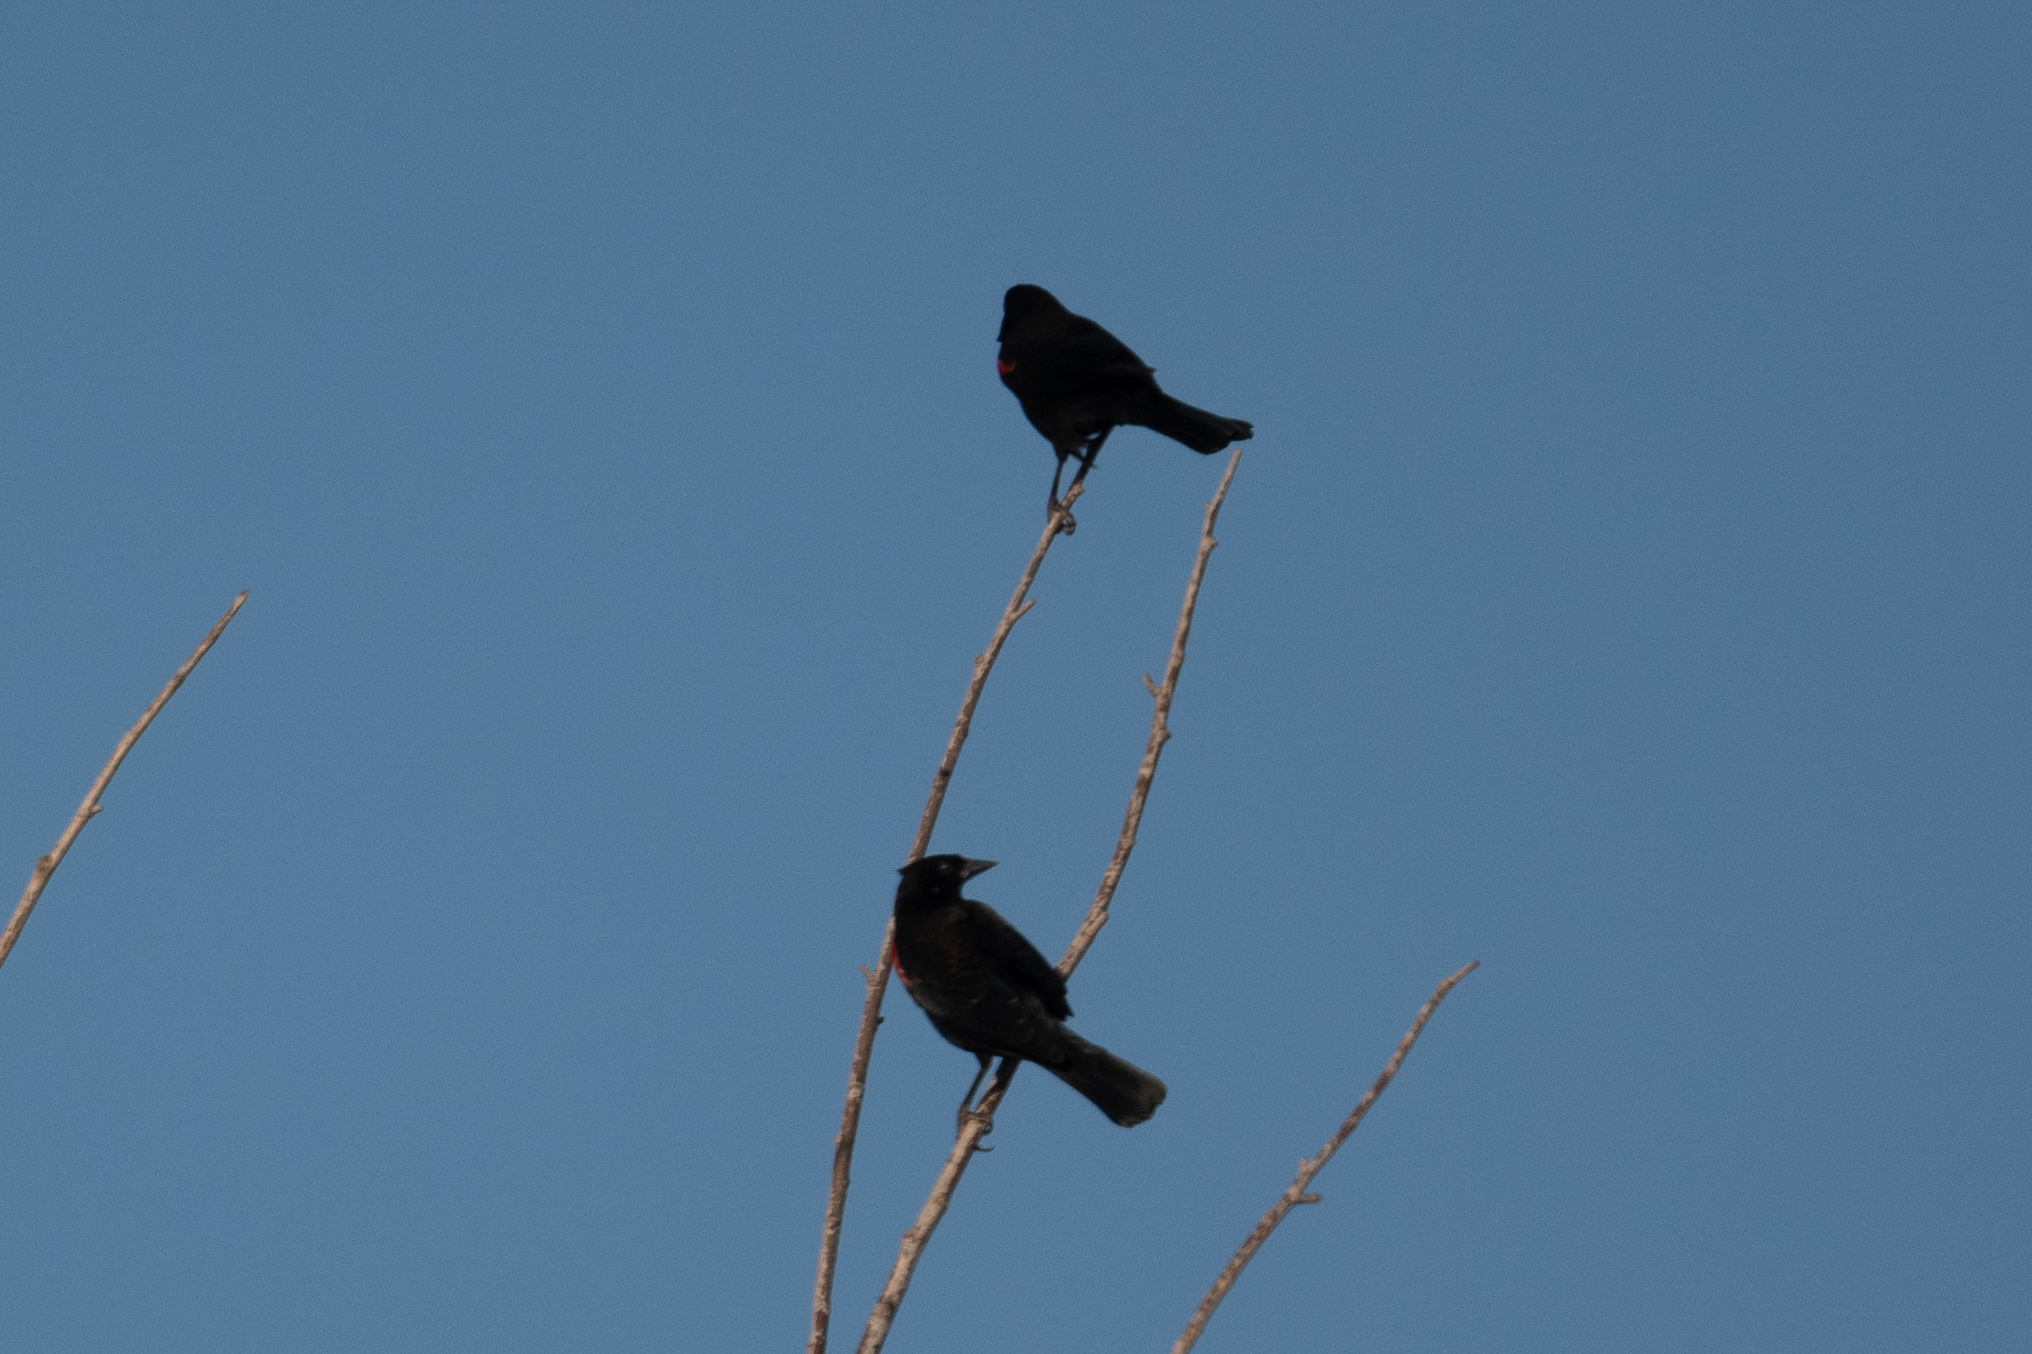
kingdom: Animalia
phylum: Chordata
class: Aves
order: Passeriformes
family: Icteridae
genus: Agelaius
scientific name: Agelaius phoeniceus
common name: Red-winged blackbird
